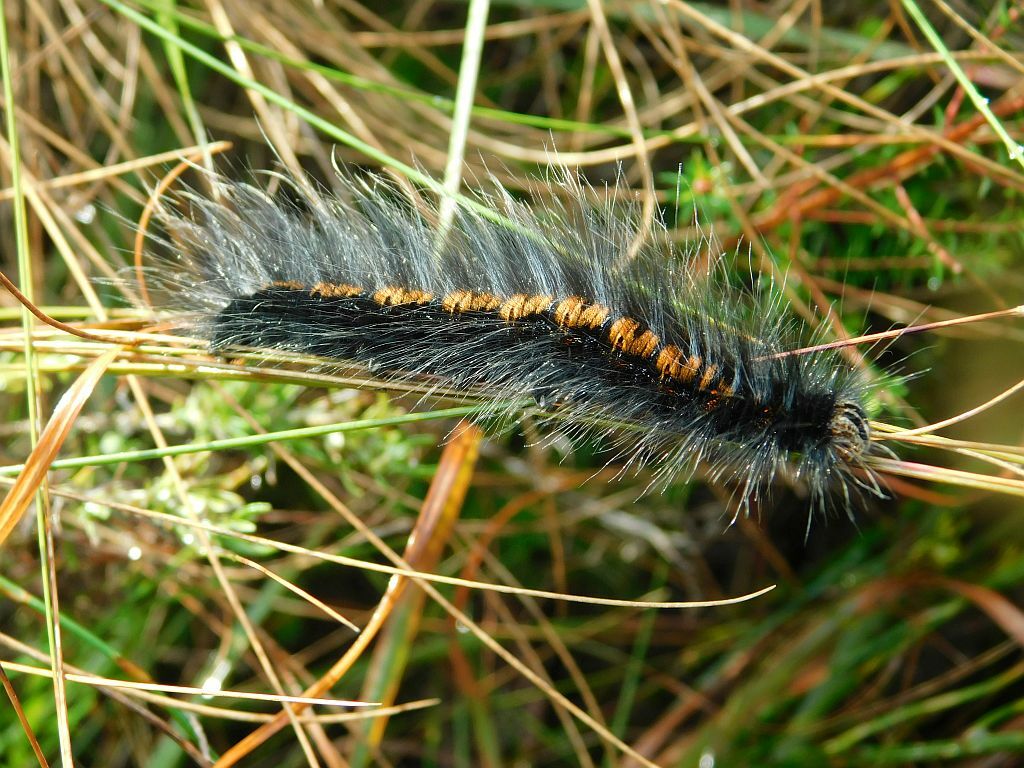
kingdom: Animalia
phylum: Arthropoda
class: Insecta
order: Lepidoptera
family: Lasiocampidae
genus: Mesocelis
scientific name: Mesocelis monticola
